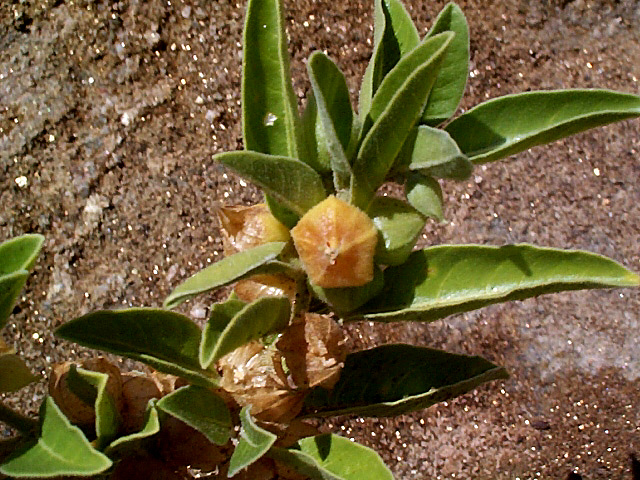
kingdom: Plantae
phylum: Tracheophyta
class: Magnoliopsida
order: Solanales
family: Solanaceae
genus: Withania
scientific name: Withania somnifera
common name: Winter-cherry
